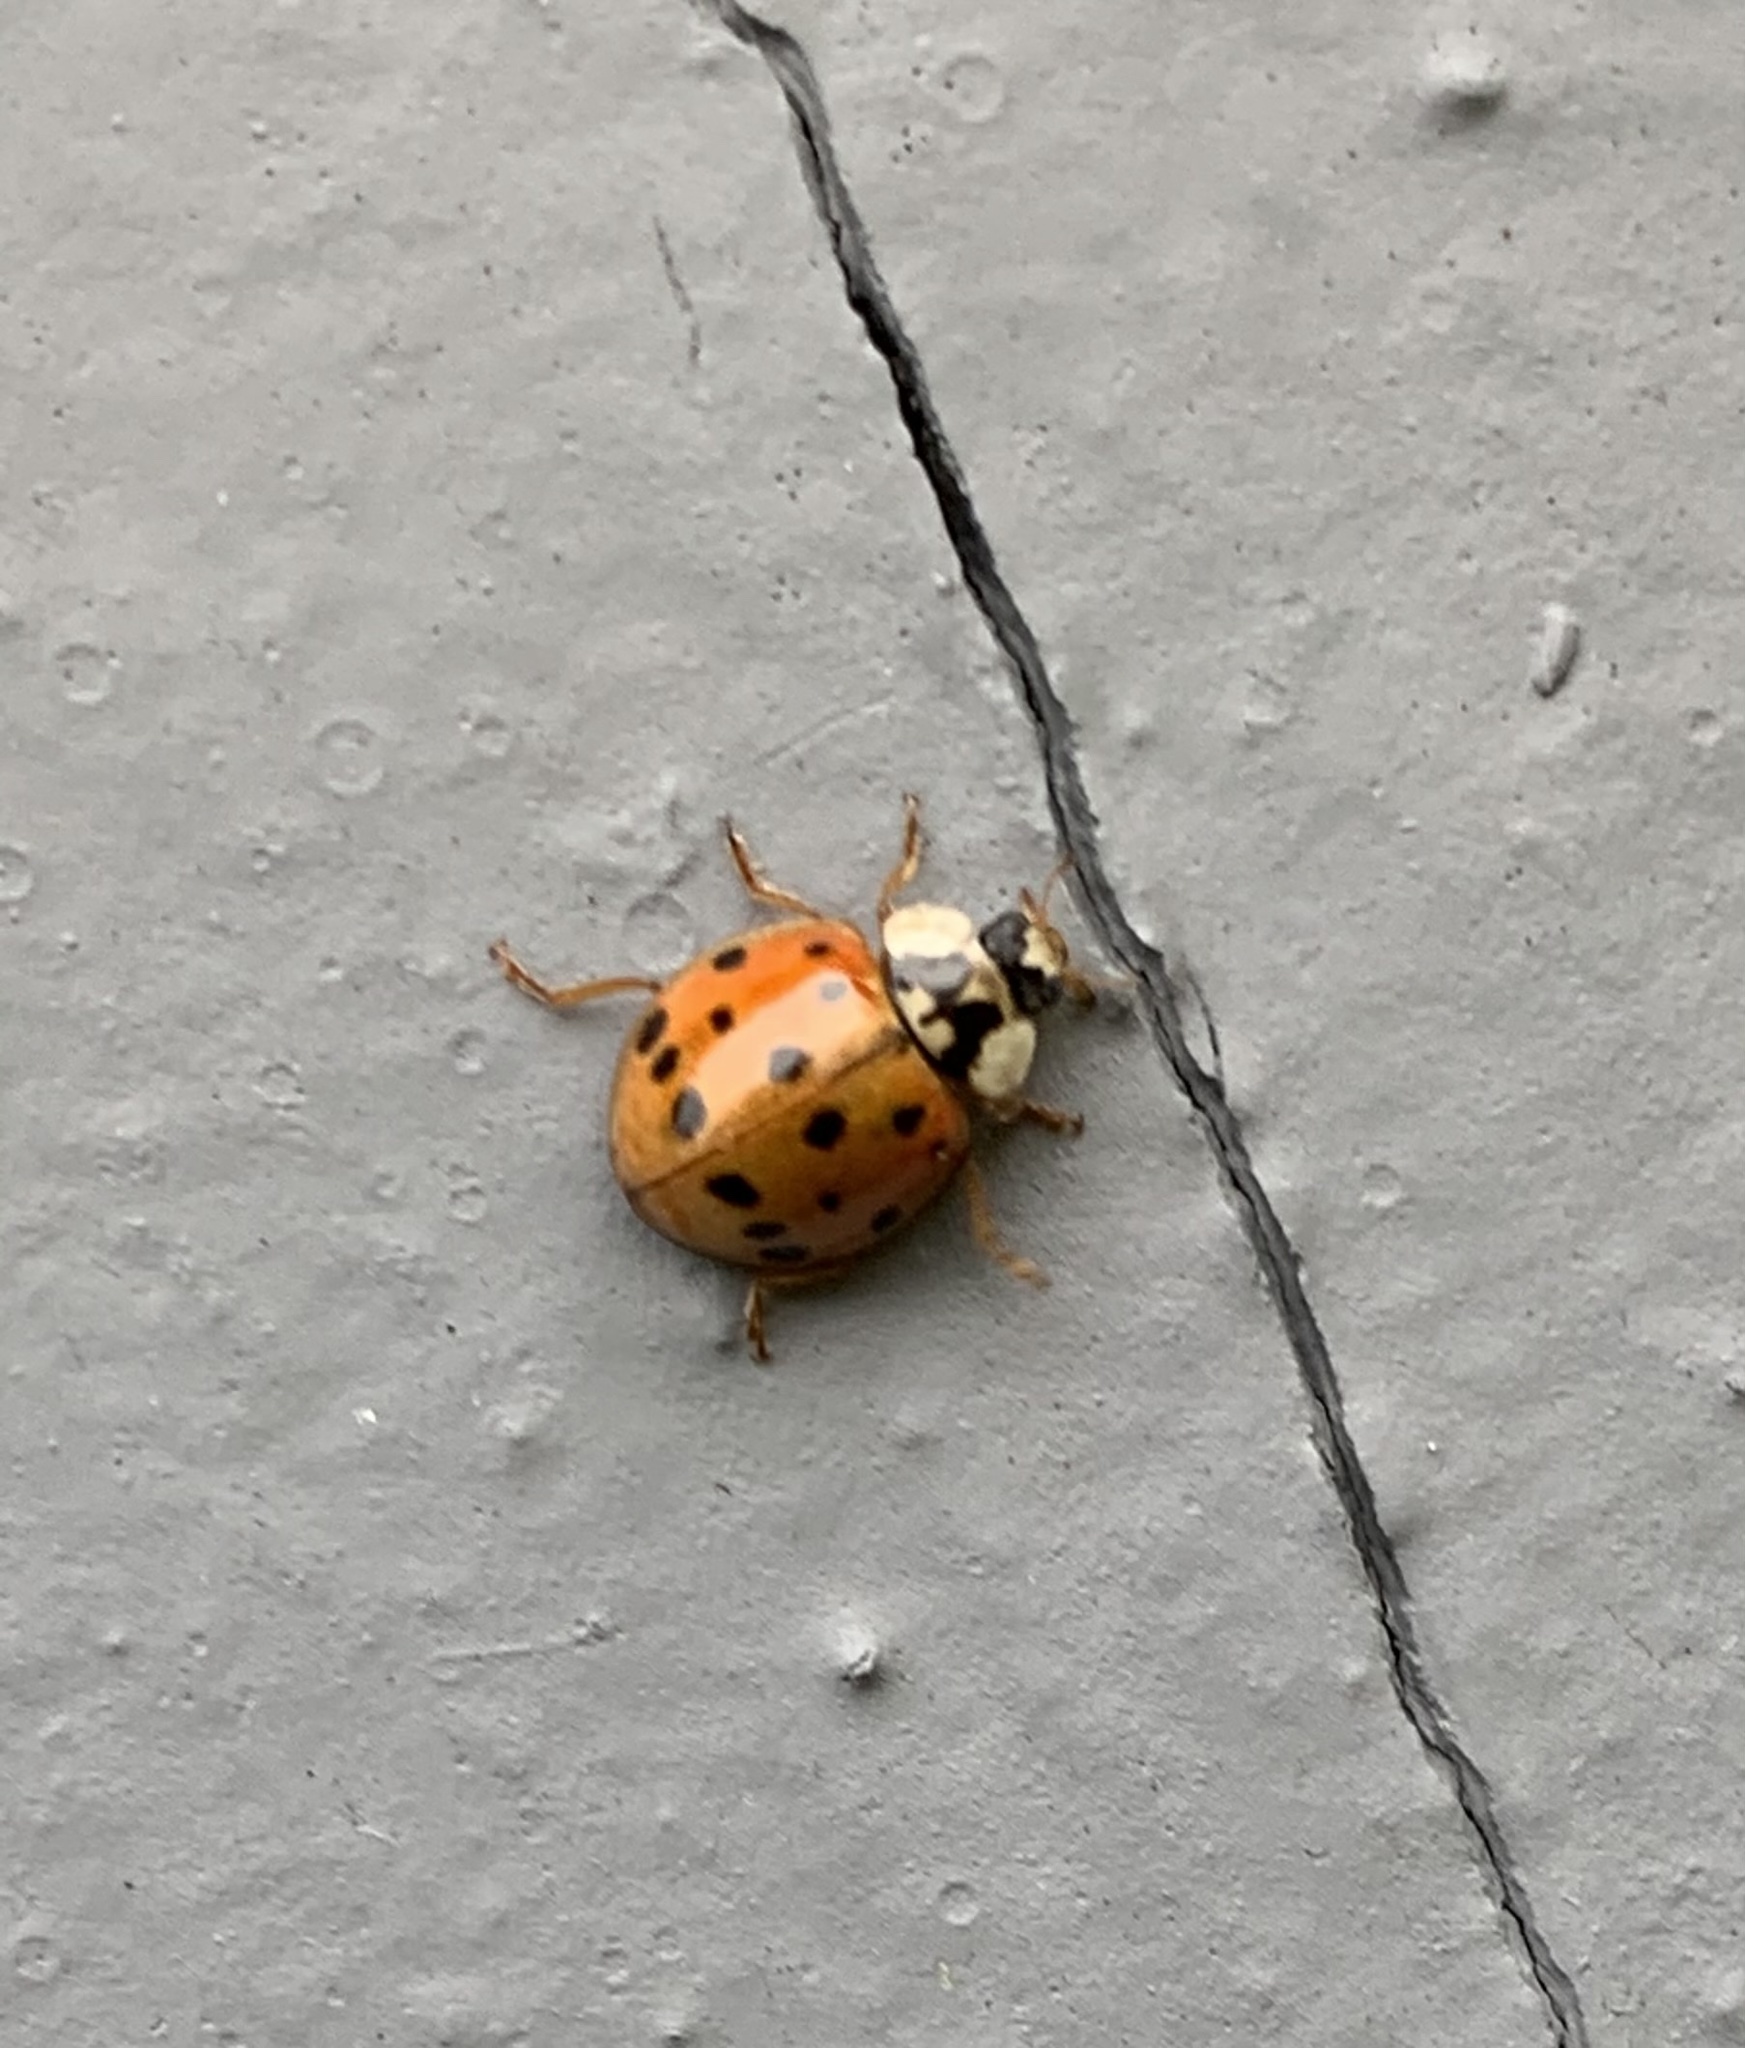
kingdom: Animalia
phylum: Arthropoda
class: Insecta
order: Coleoptera
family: Coccinellidae
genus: Harmonia
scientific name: Harmonia axyridis
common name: Harlequin ladybird
